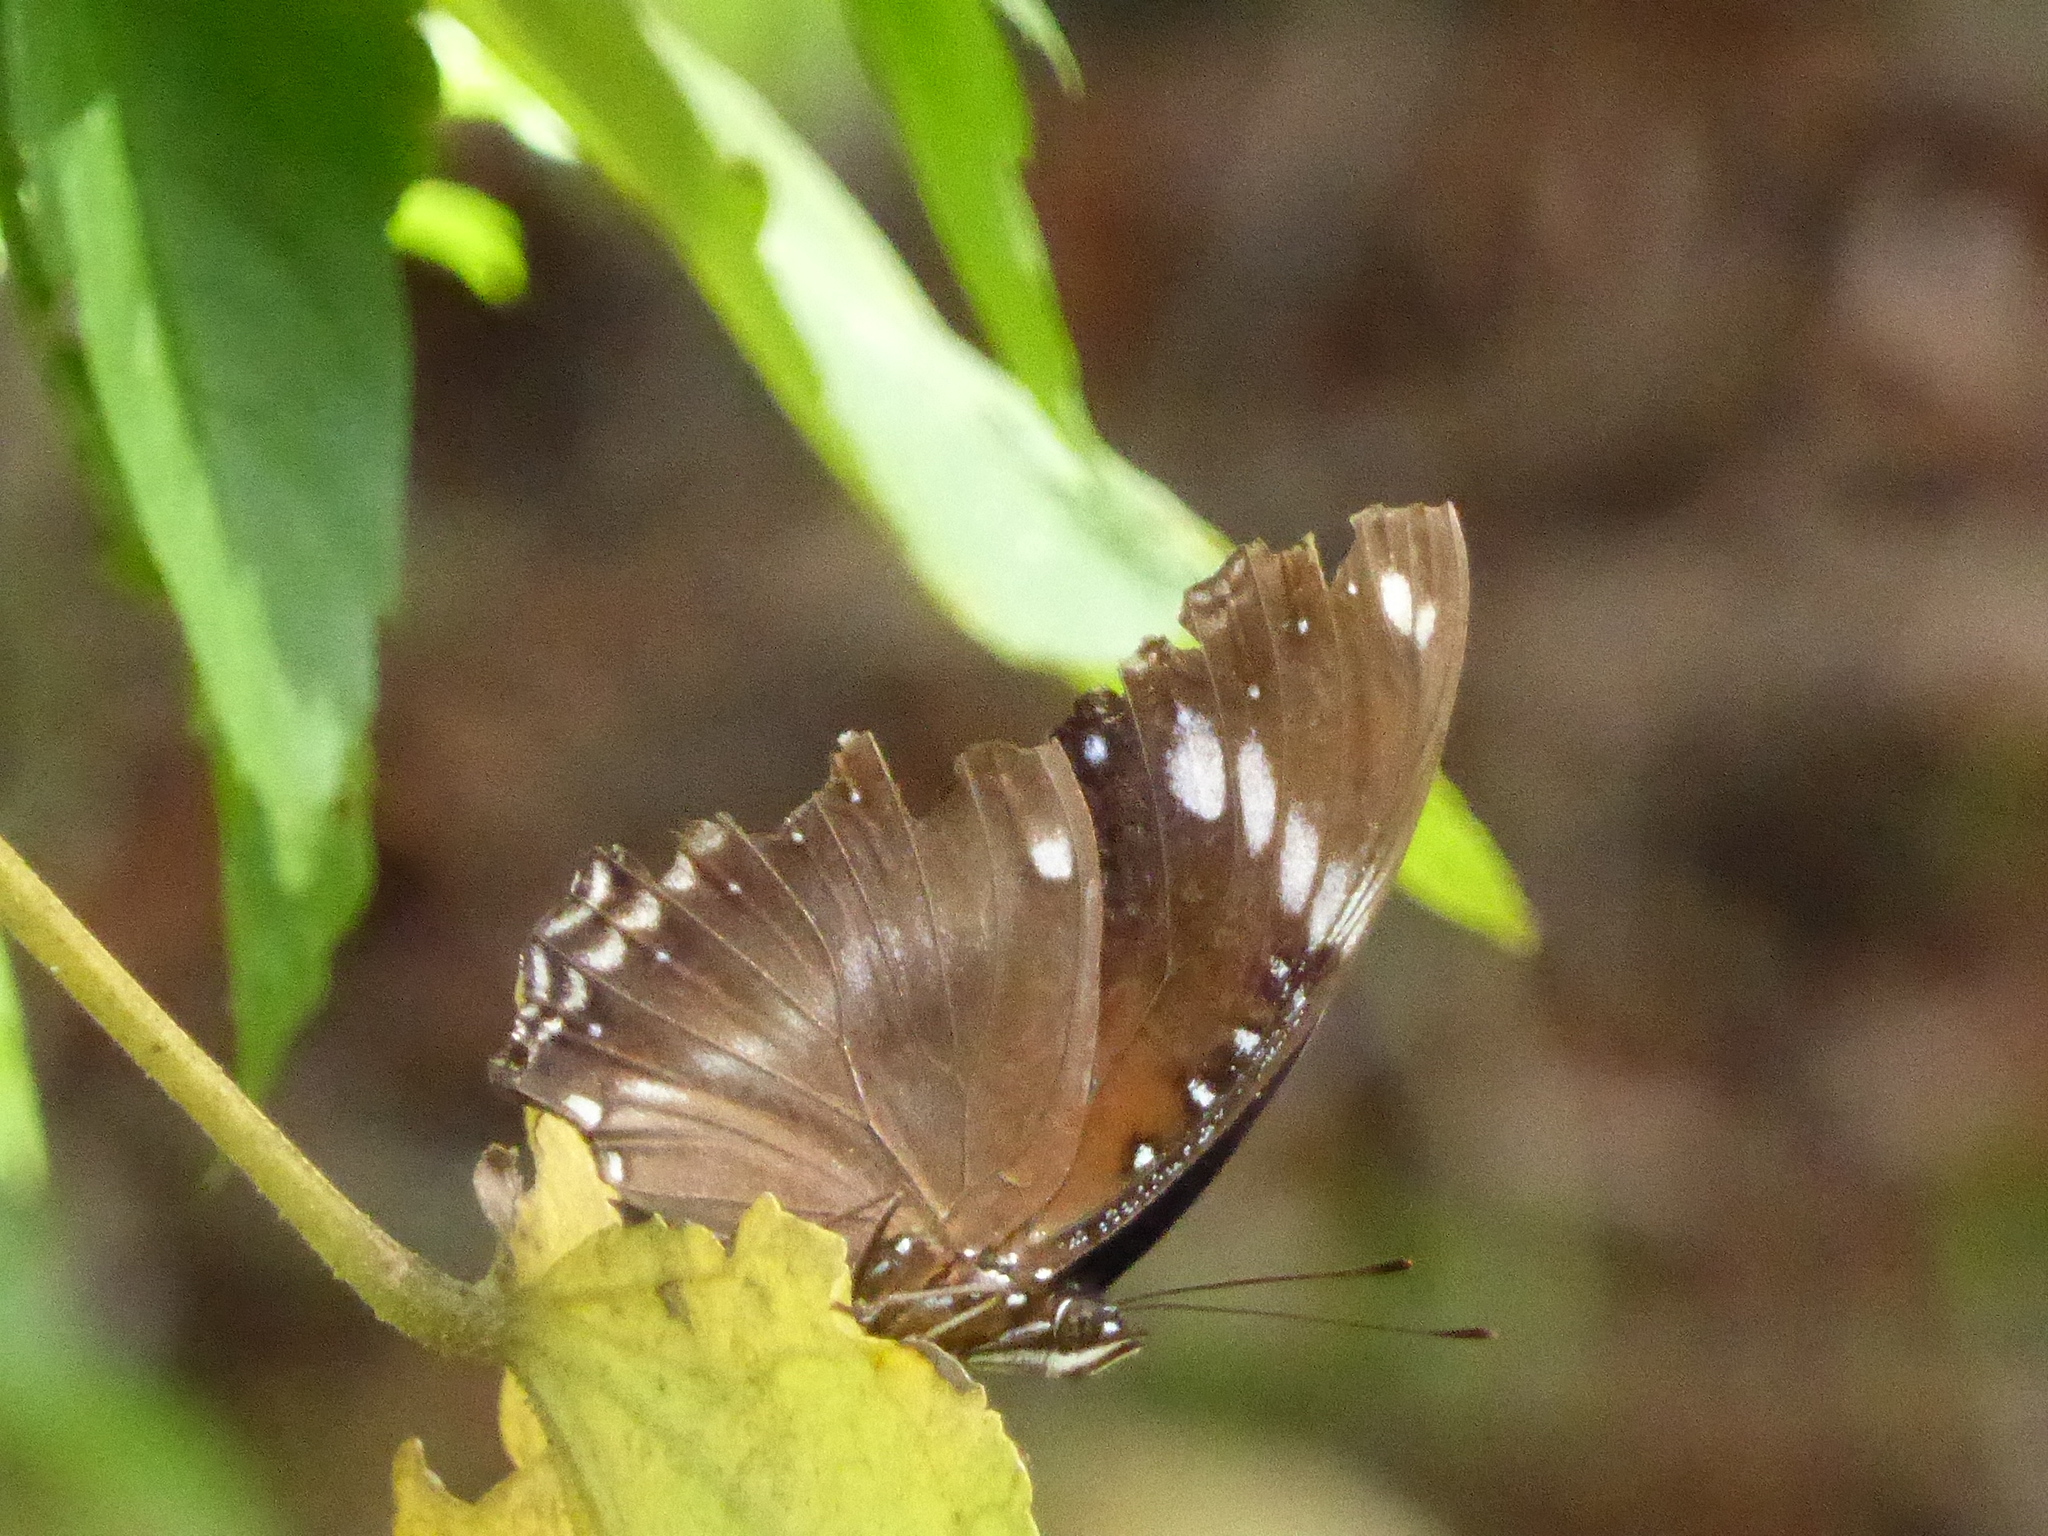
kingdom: Animalia
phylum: Arthropoda
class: Insecta
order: Lepidoptera
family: Nymphalidae
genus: Hypolimnas
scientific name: Hypolimnas bolina
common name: Great eggfly
